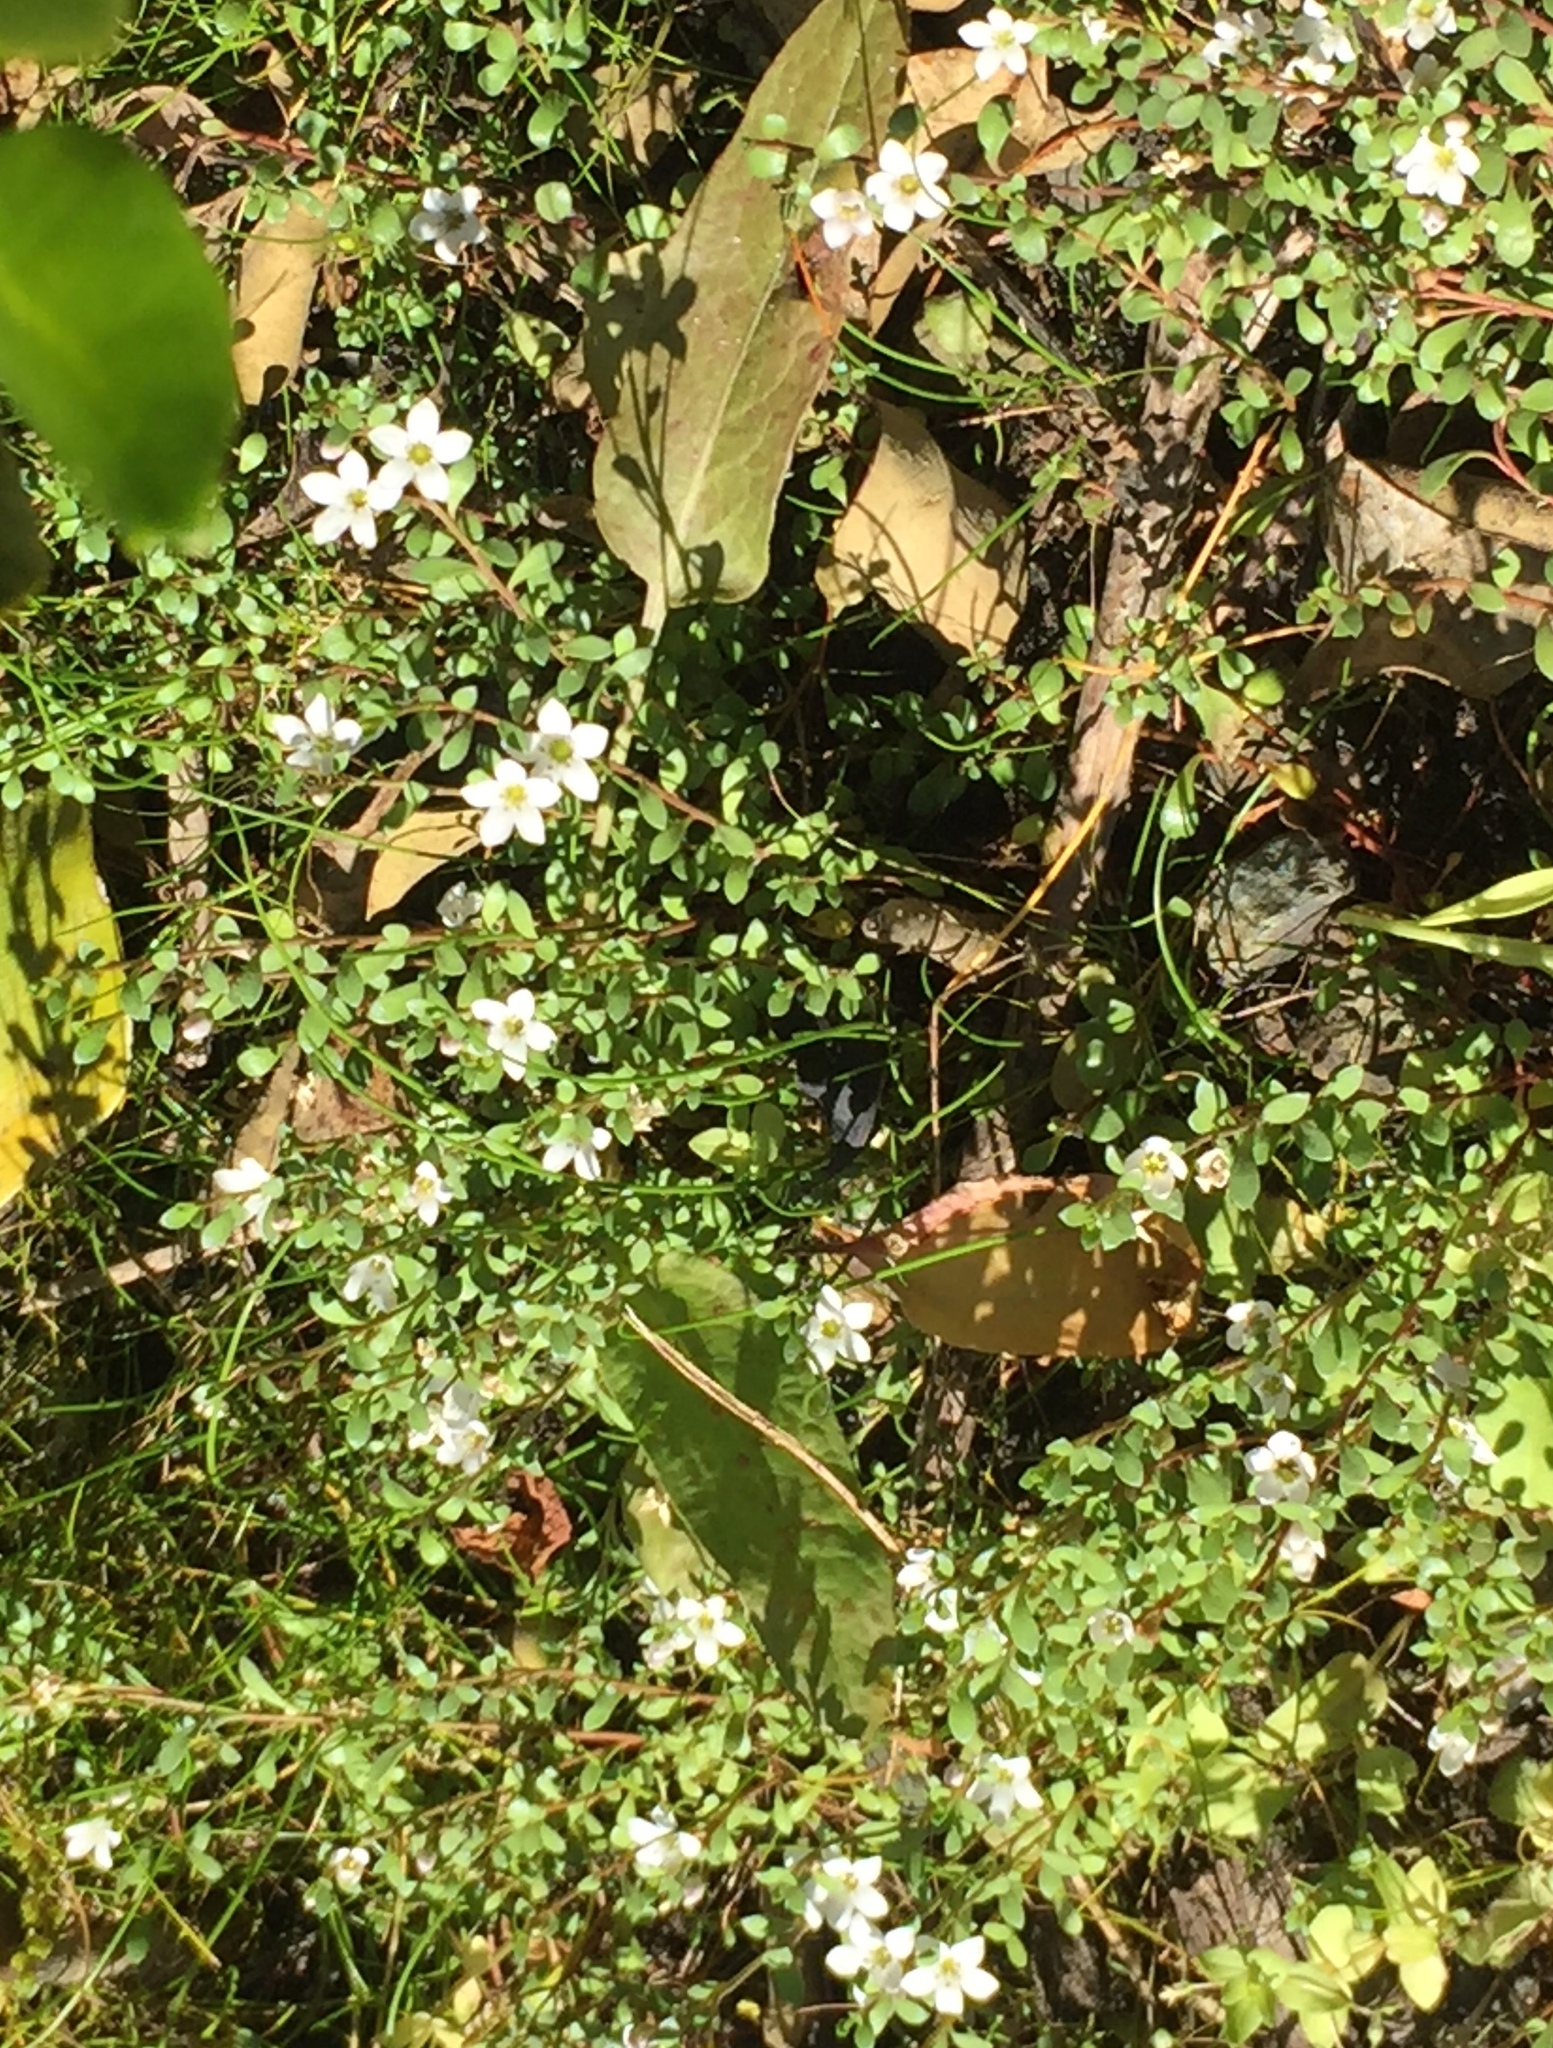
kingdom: Plantae
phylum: Tracheophyta
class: Magnoliopsida
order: Ericales
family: Primulaceae
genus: Samolus
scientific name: Samolus repens
